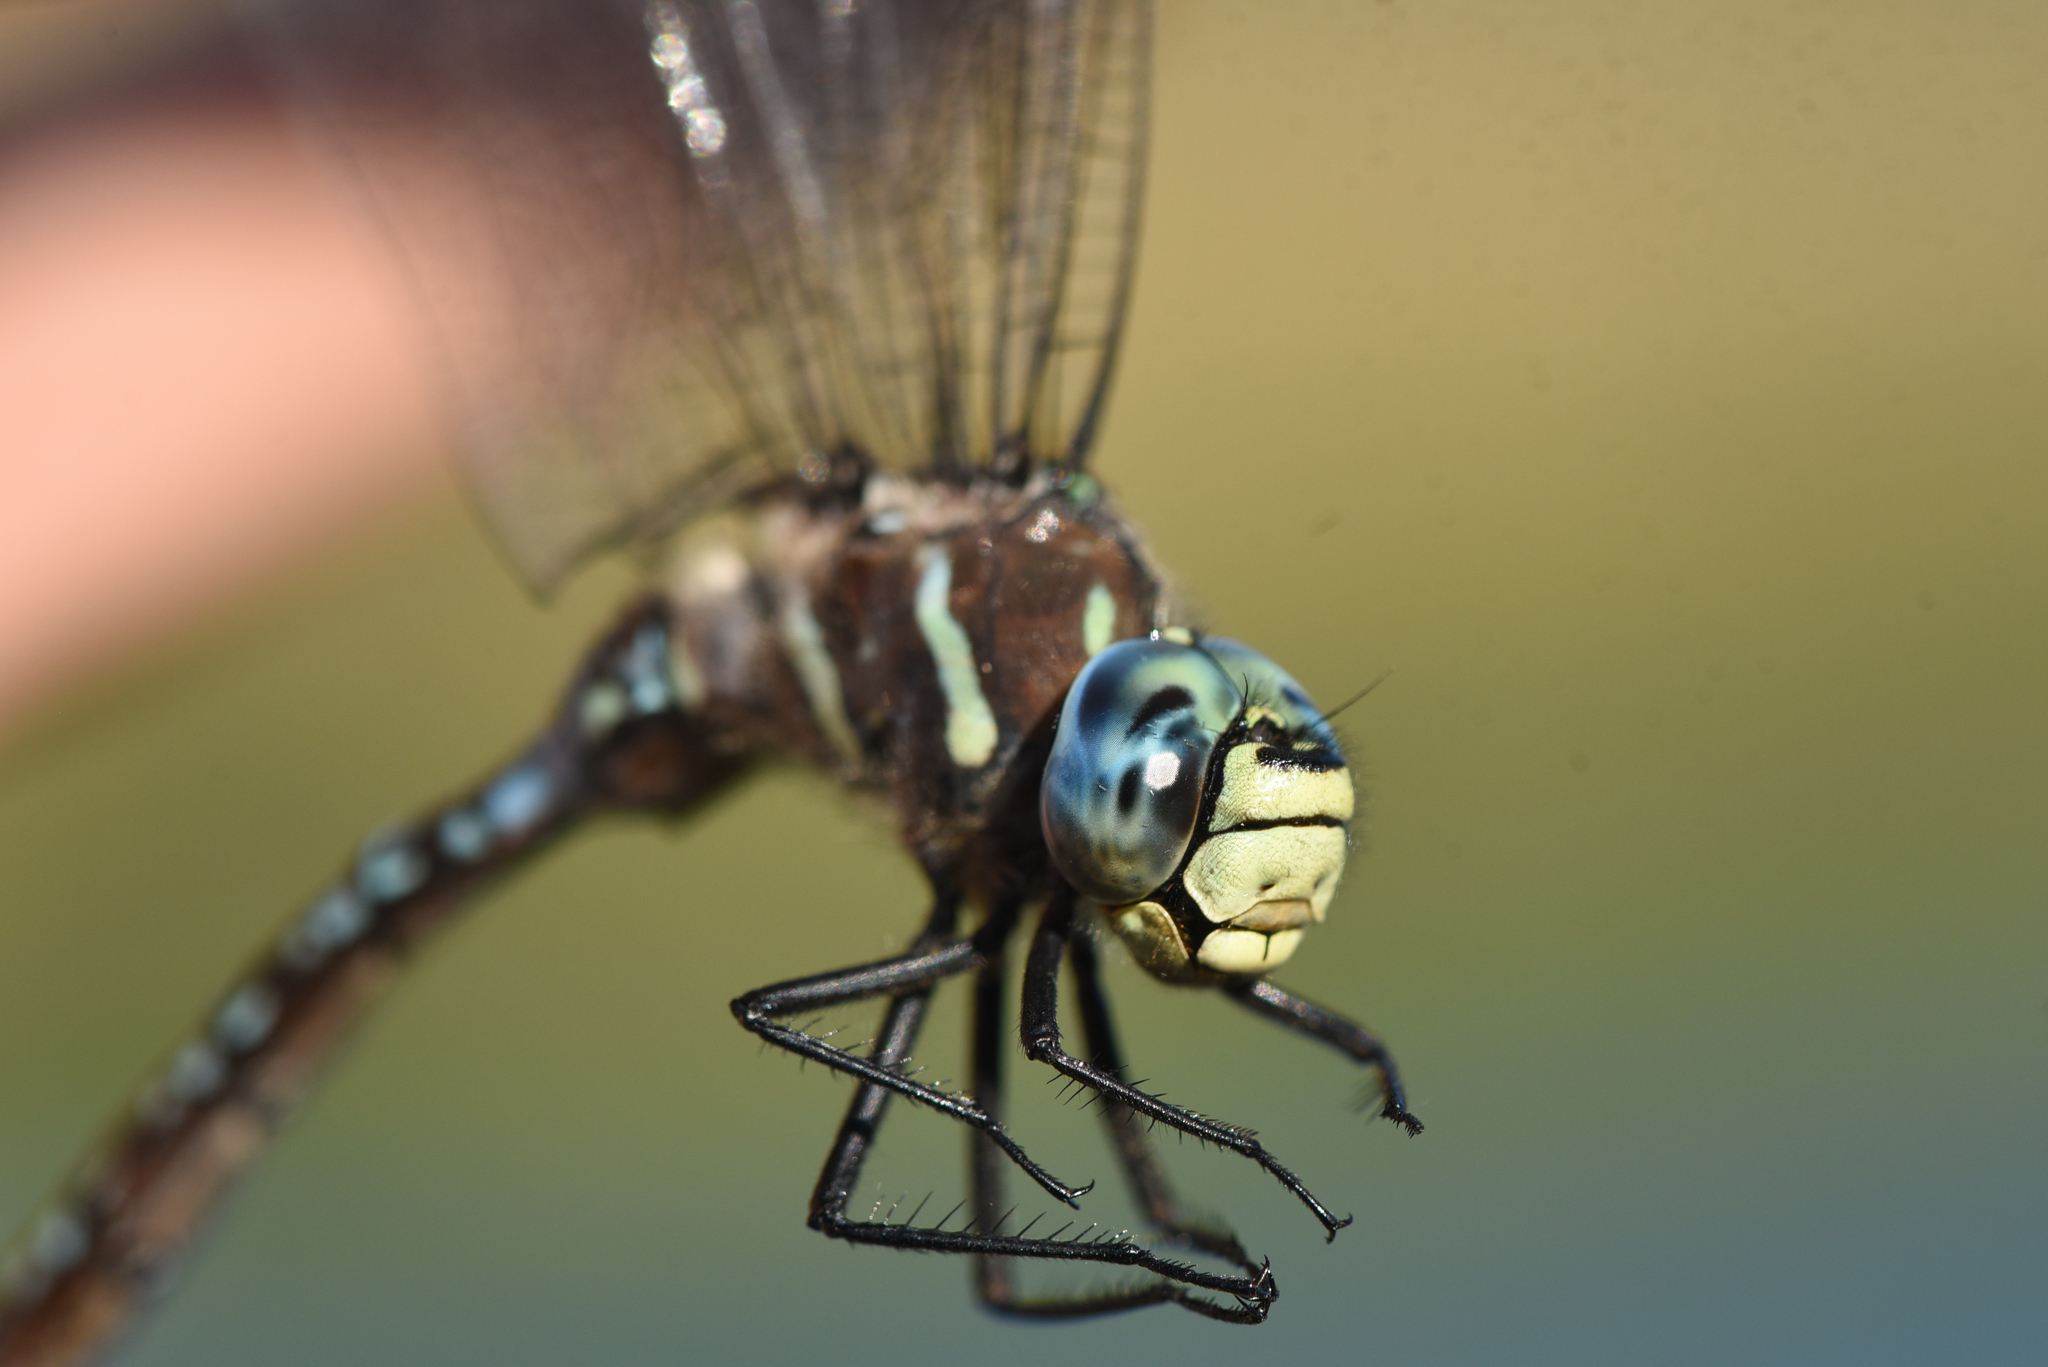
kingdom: Animalia
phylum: Arthropoda
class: Insecta
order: Odonata
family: Aeshnidae
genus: Aeshna
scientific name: Aeshna palmata
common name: Paddle-tailed darner
